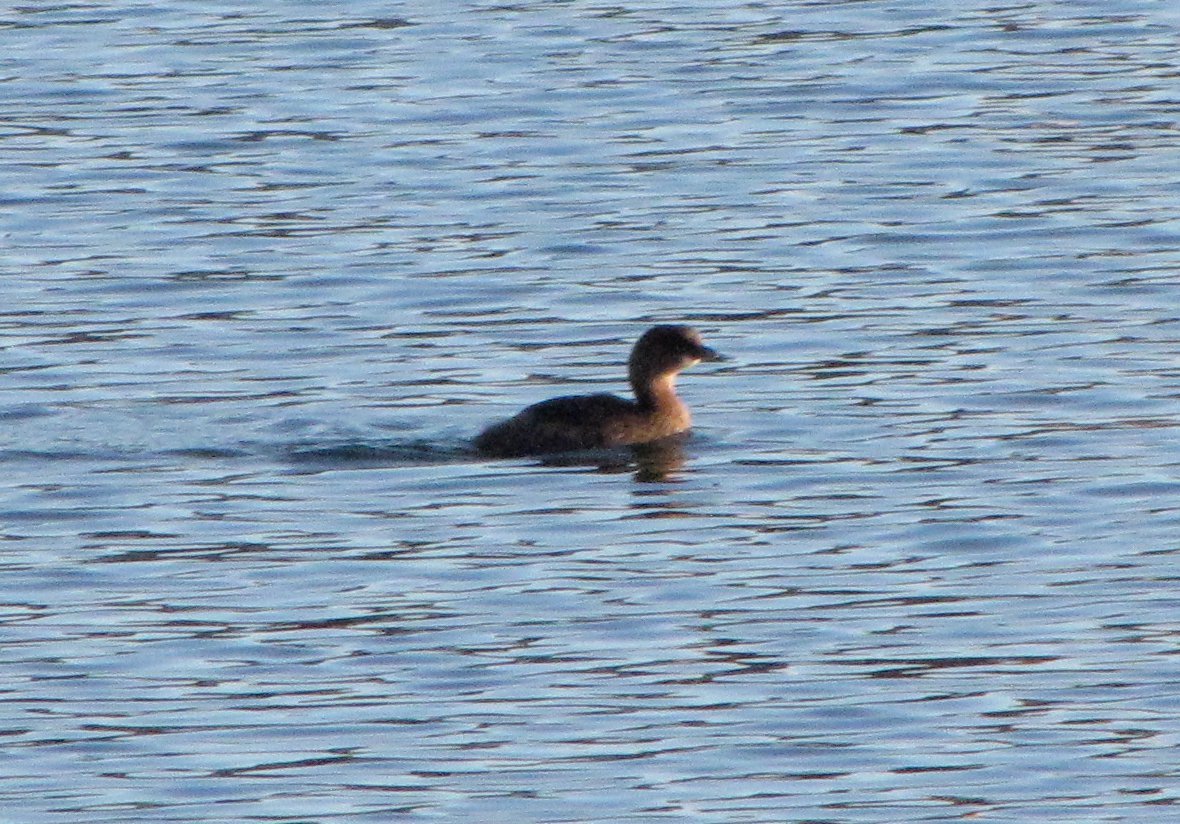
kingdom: Animalia
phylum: Chordata
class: Aves
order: Podicipediformes
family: Podicipedidae
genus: Podilymbus
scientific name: Podilymbus podiceps
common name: Pied-billed grebe
